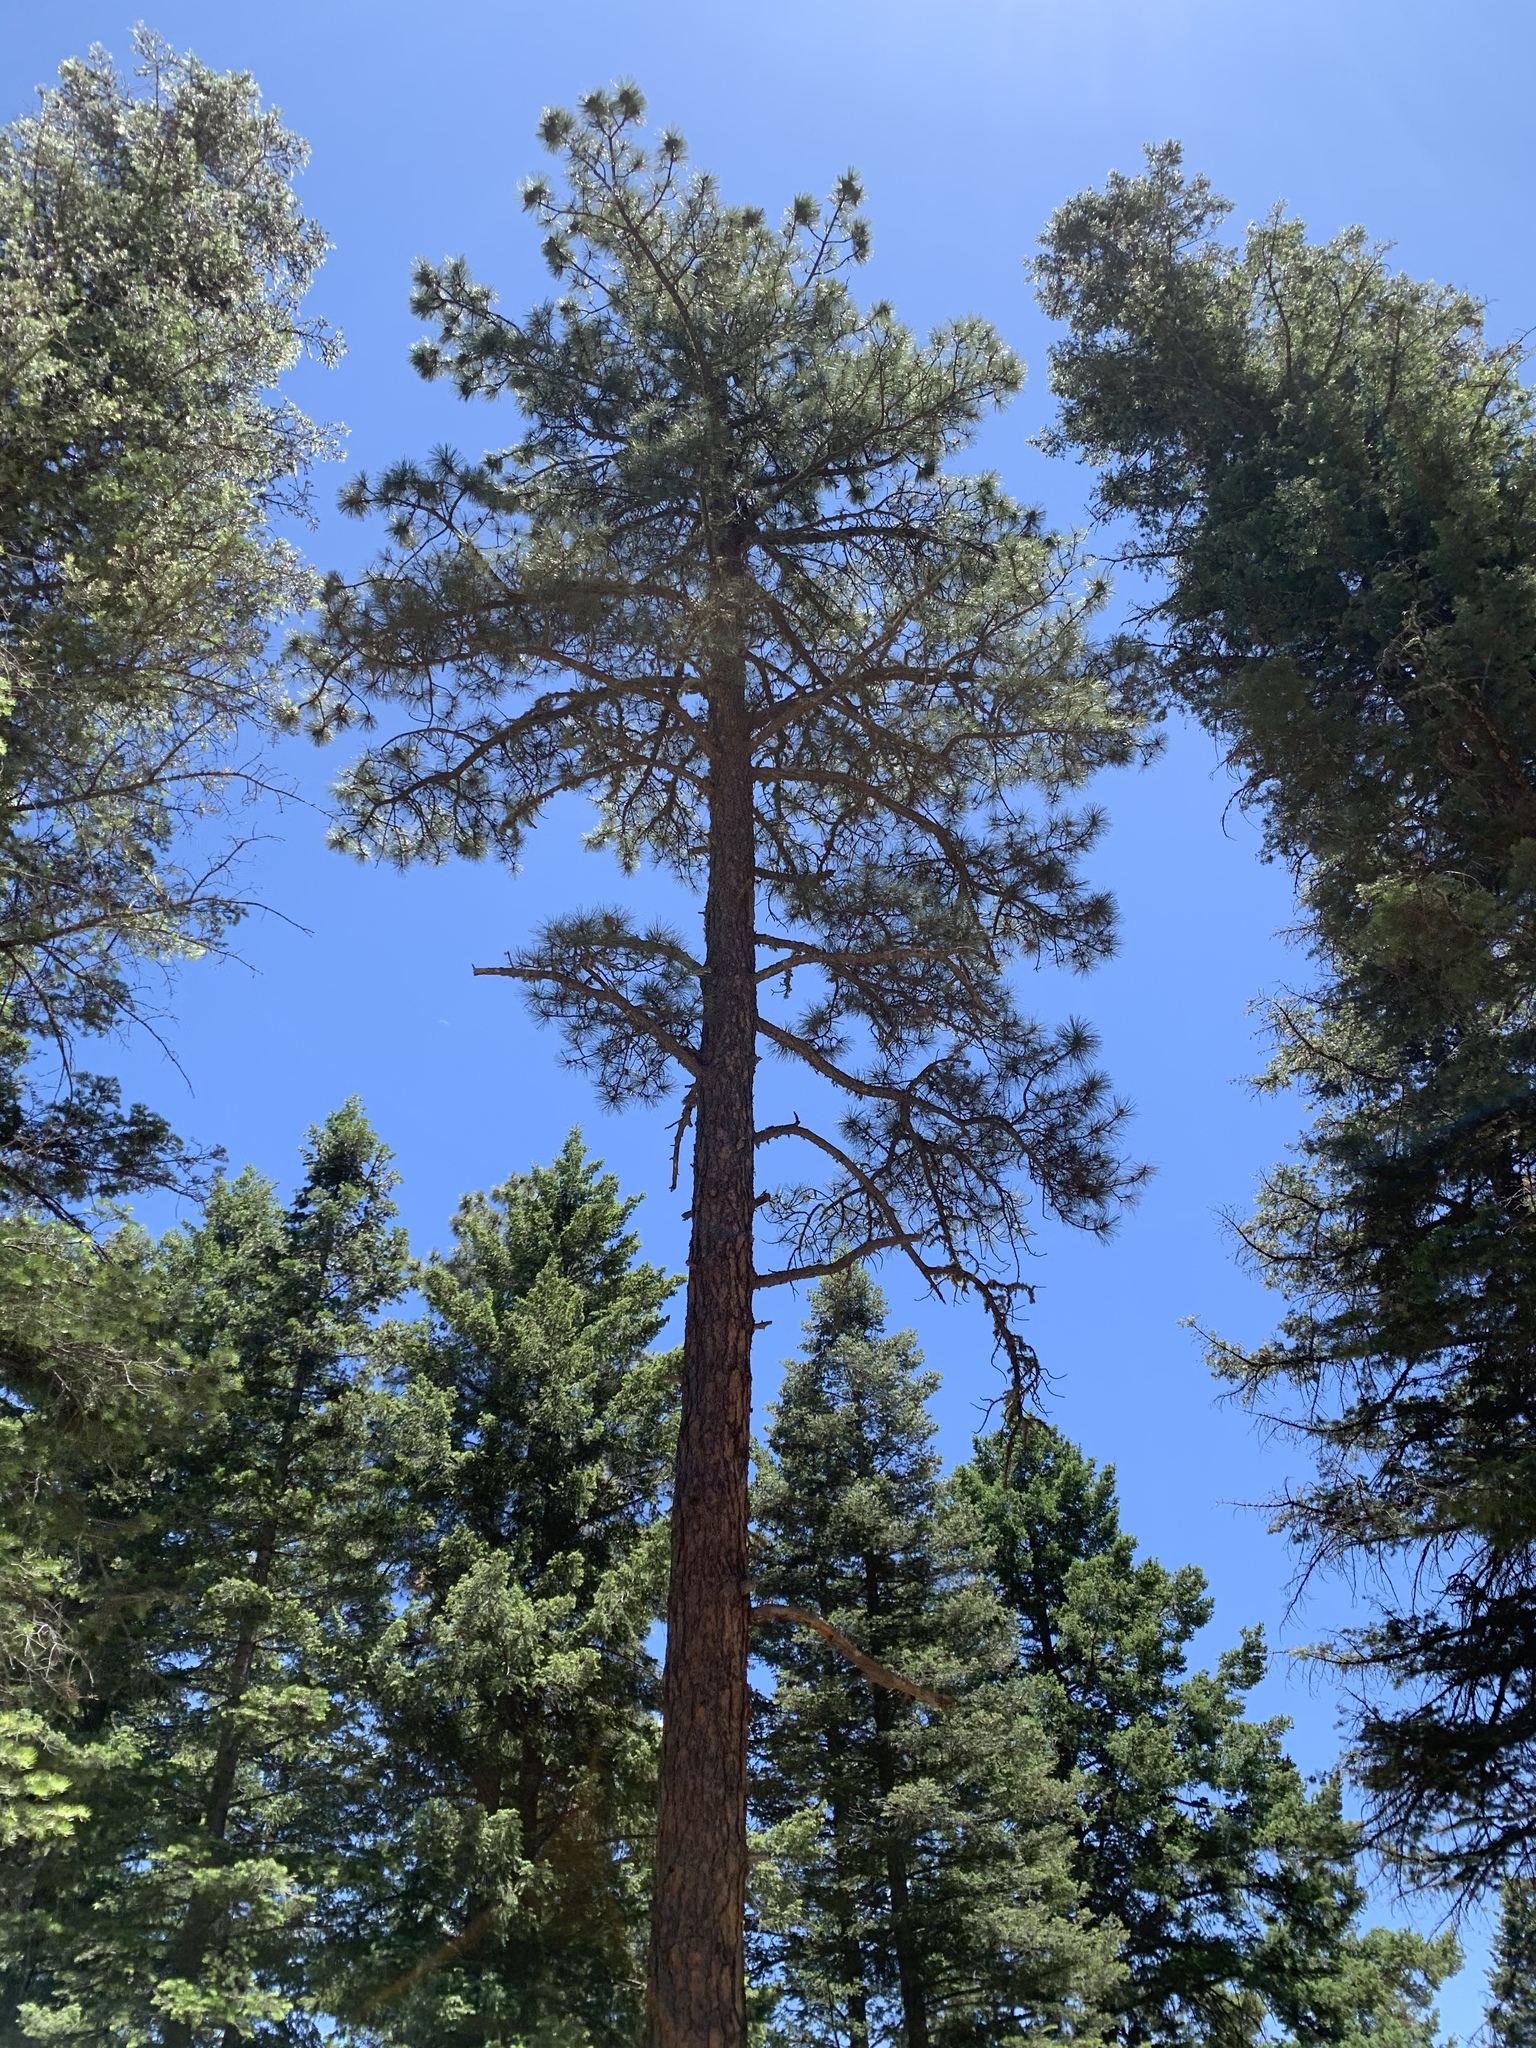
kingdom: Plantae
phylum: Tracheophyta
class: Pinopsida
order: Pinales
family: Pinaceae
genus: Pinus
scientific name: Pinus ponderosa
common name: Western yellow-pine
